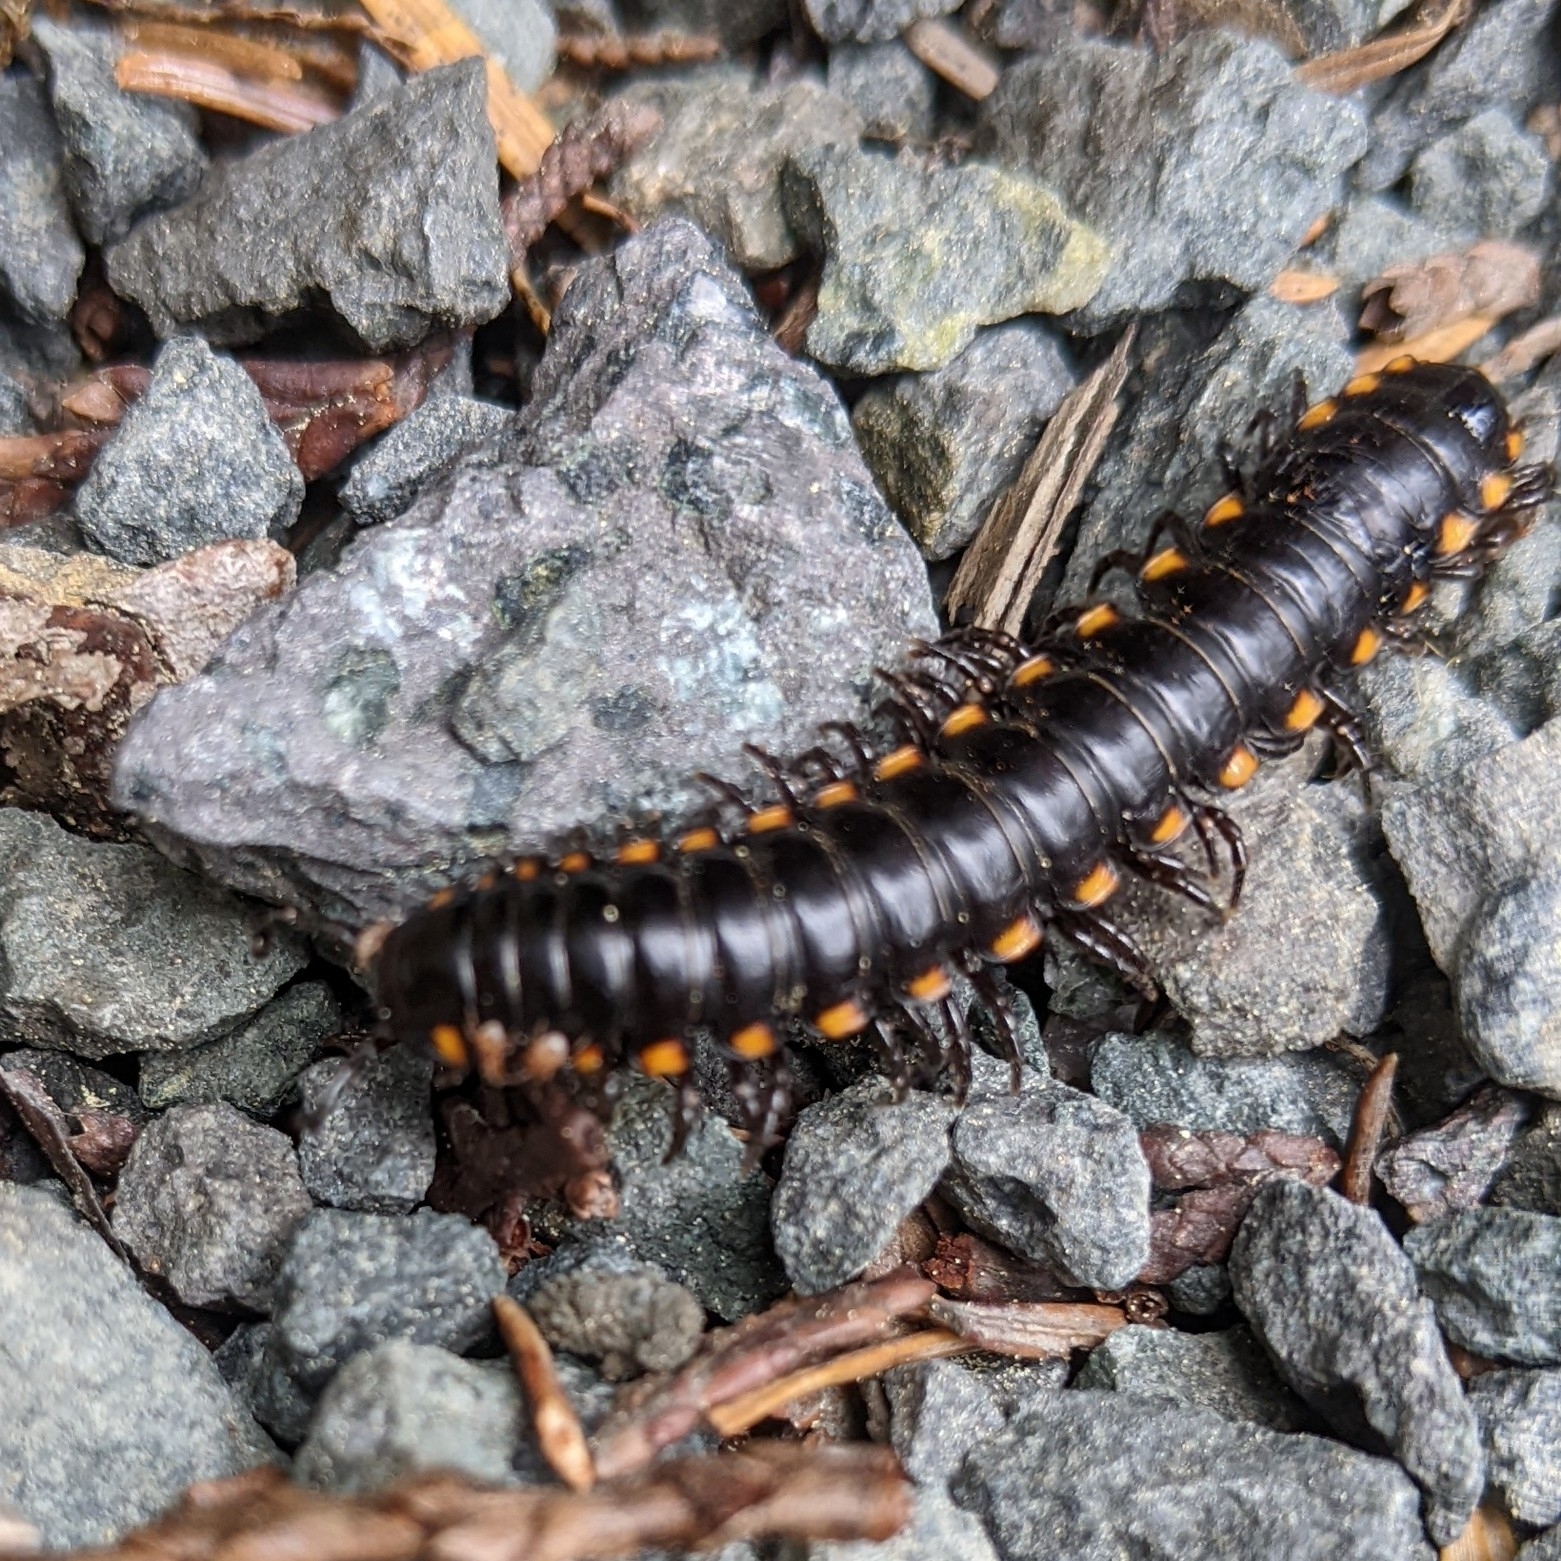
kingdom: Animalia
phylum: Arthropoda
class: Diplopoda
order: Polydesmida
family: Xystodesmidae
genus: Harpaphe
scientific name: Harpaphe haydeniana
